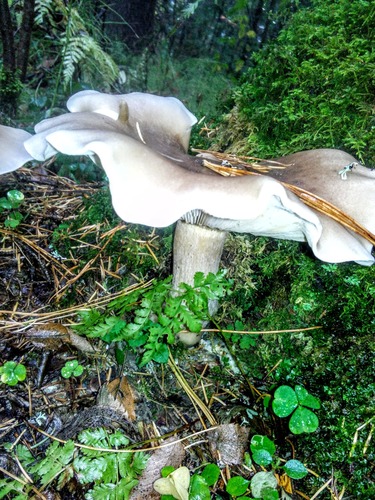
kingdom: Fungi
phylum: Basidiomycota
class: Agaricomycetes
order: Agaricales
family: Tricholomataceae
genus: Clitocybe
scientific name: Clitocybe nebularis
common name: Clouded agaric
